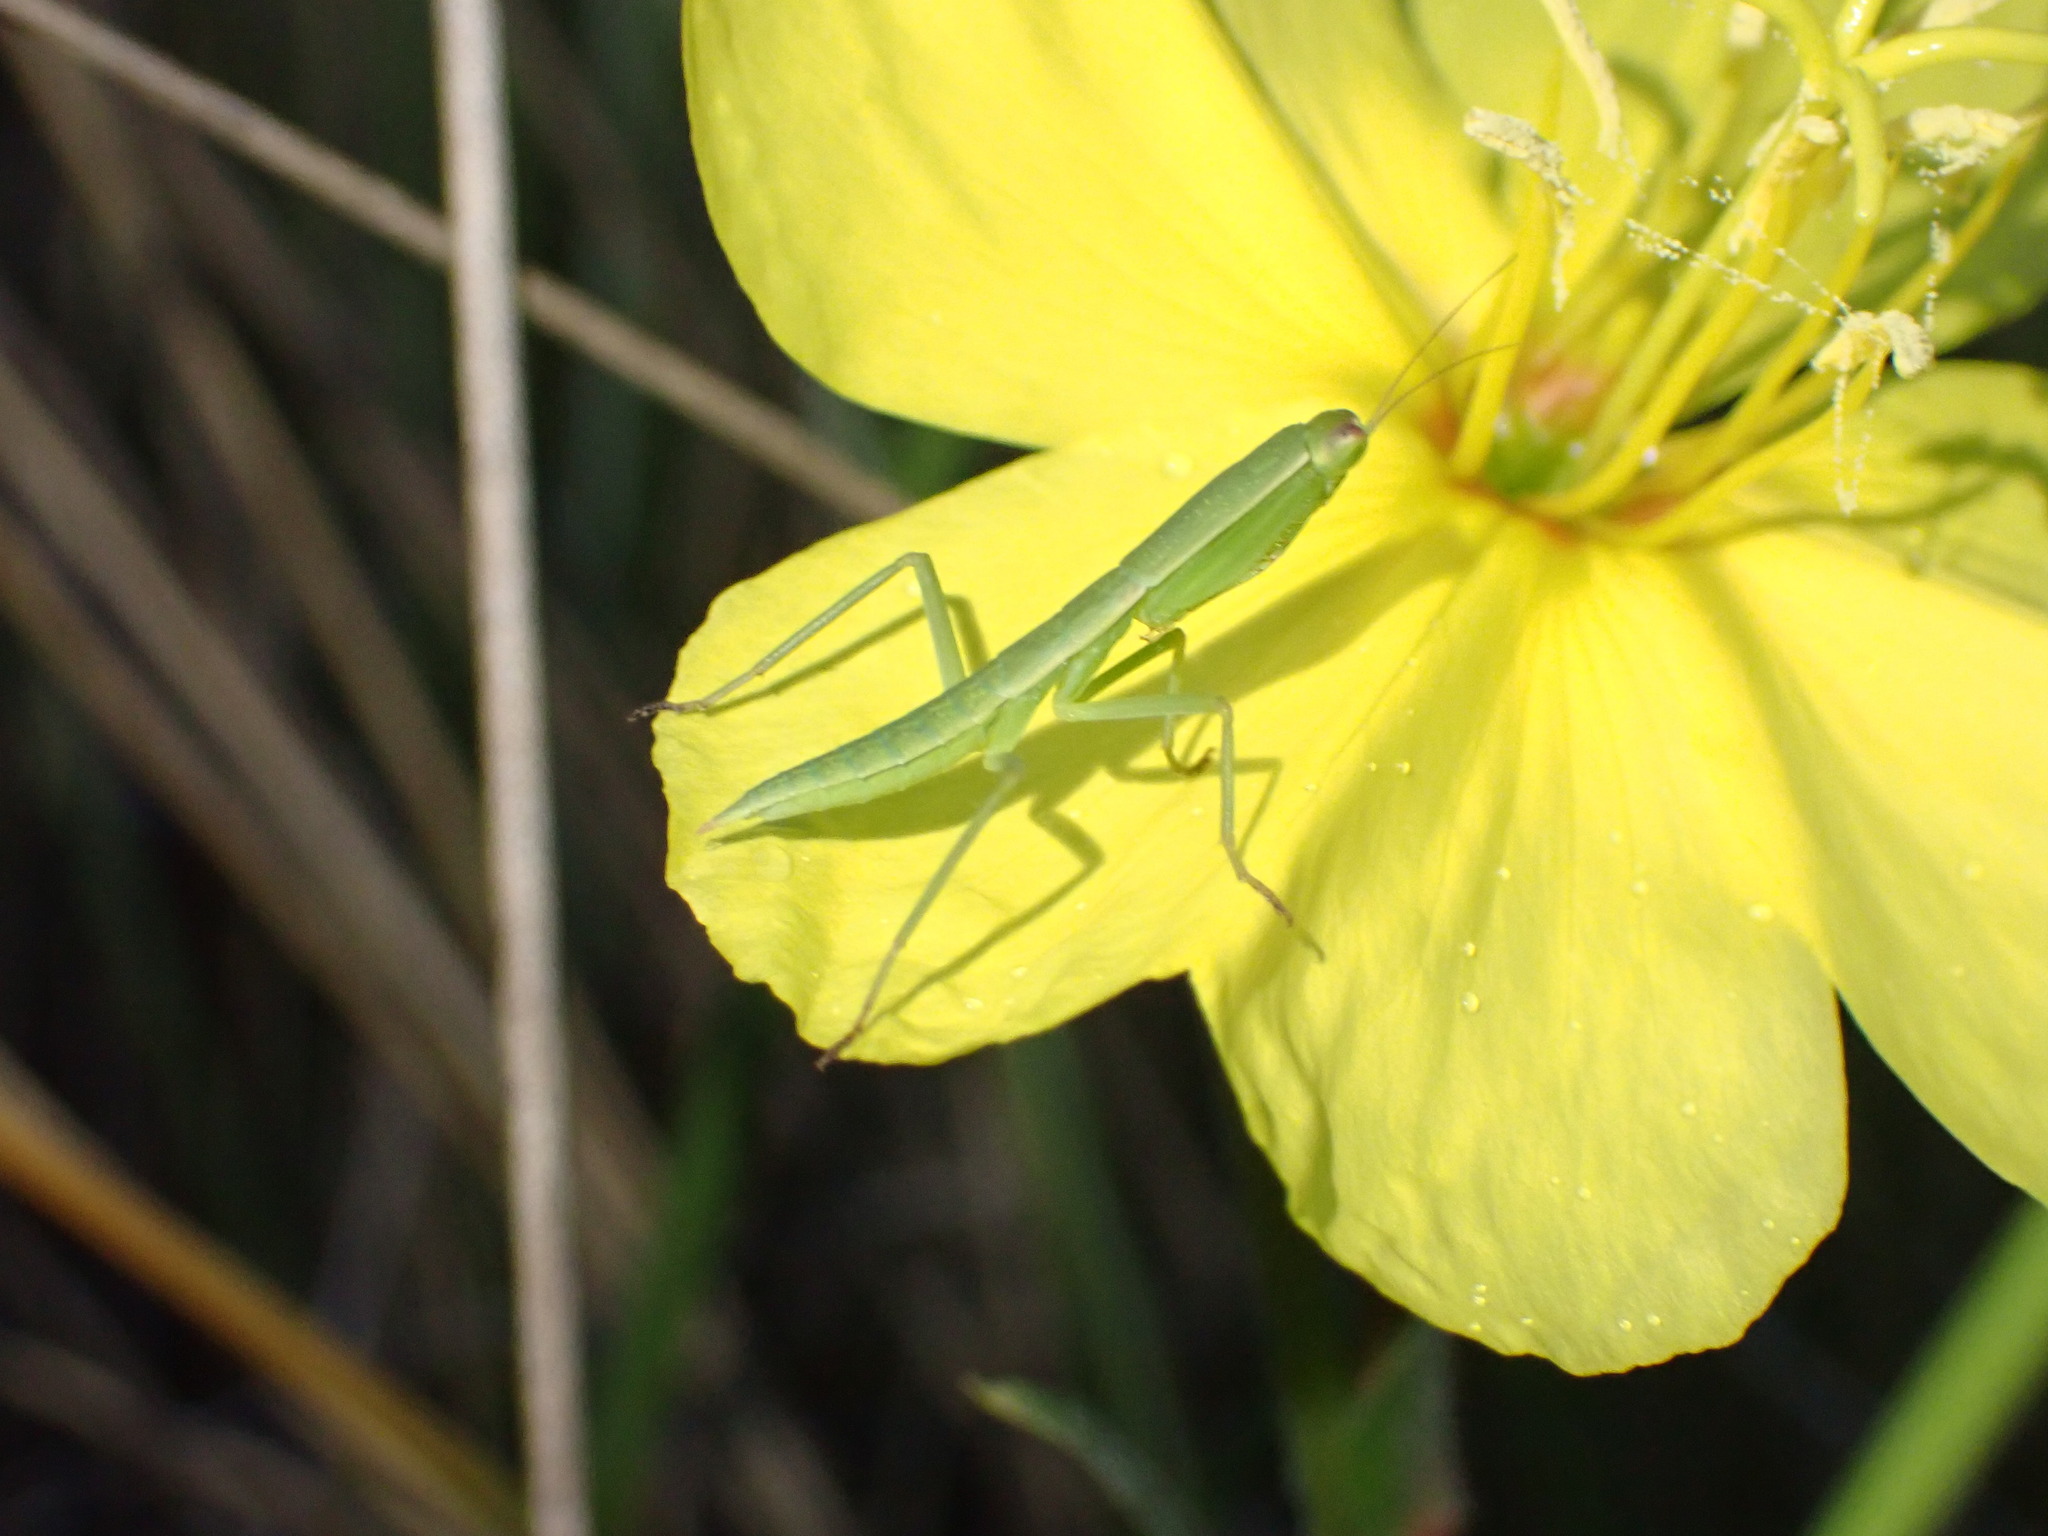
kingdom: Animalia
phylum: Arthropoda
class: Insecta
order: Mantodea
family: Mantidae
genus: Orthodera
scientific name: Orthodera novaezealandiae
